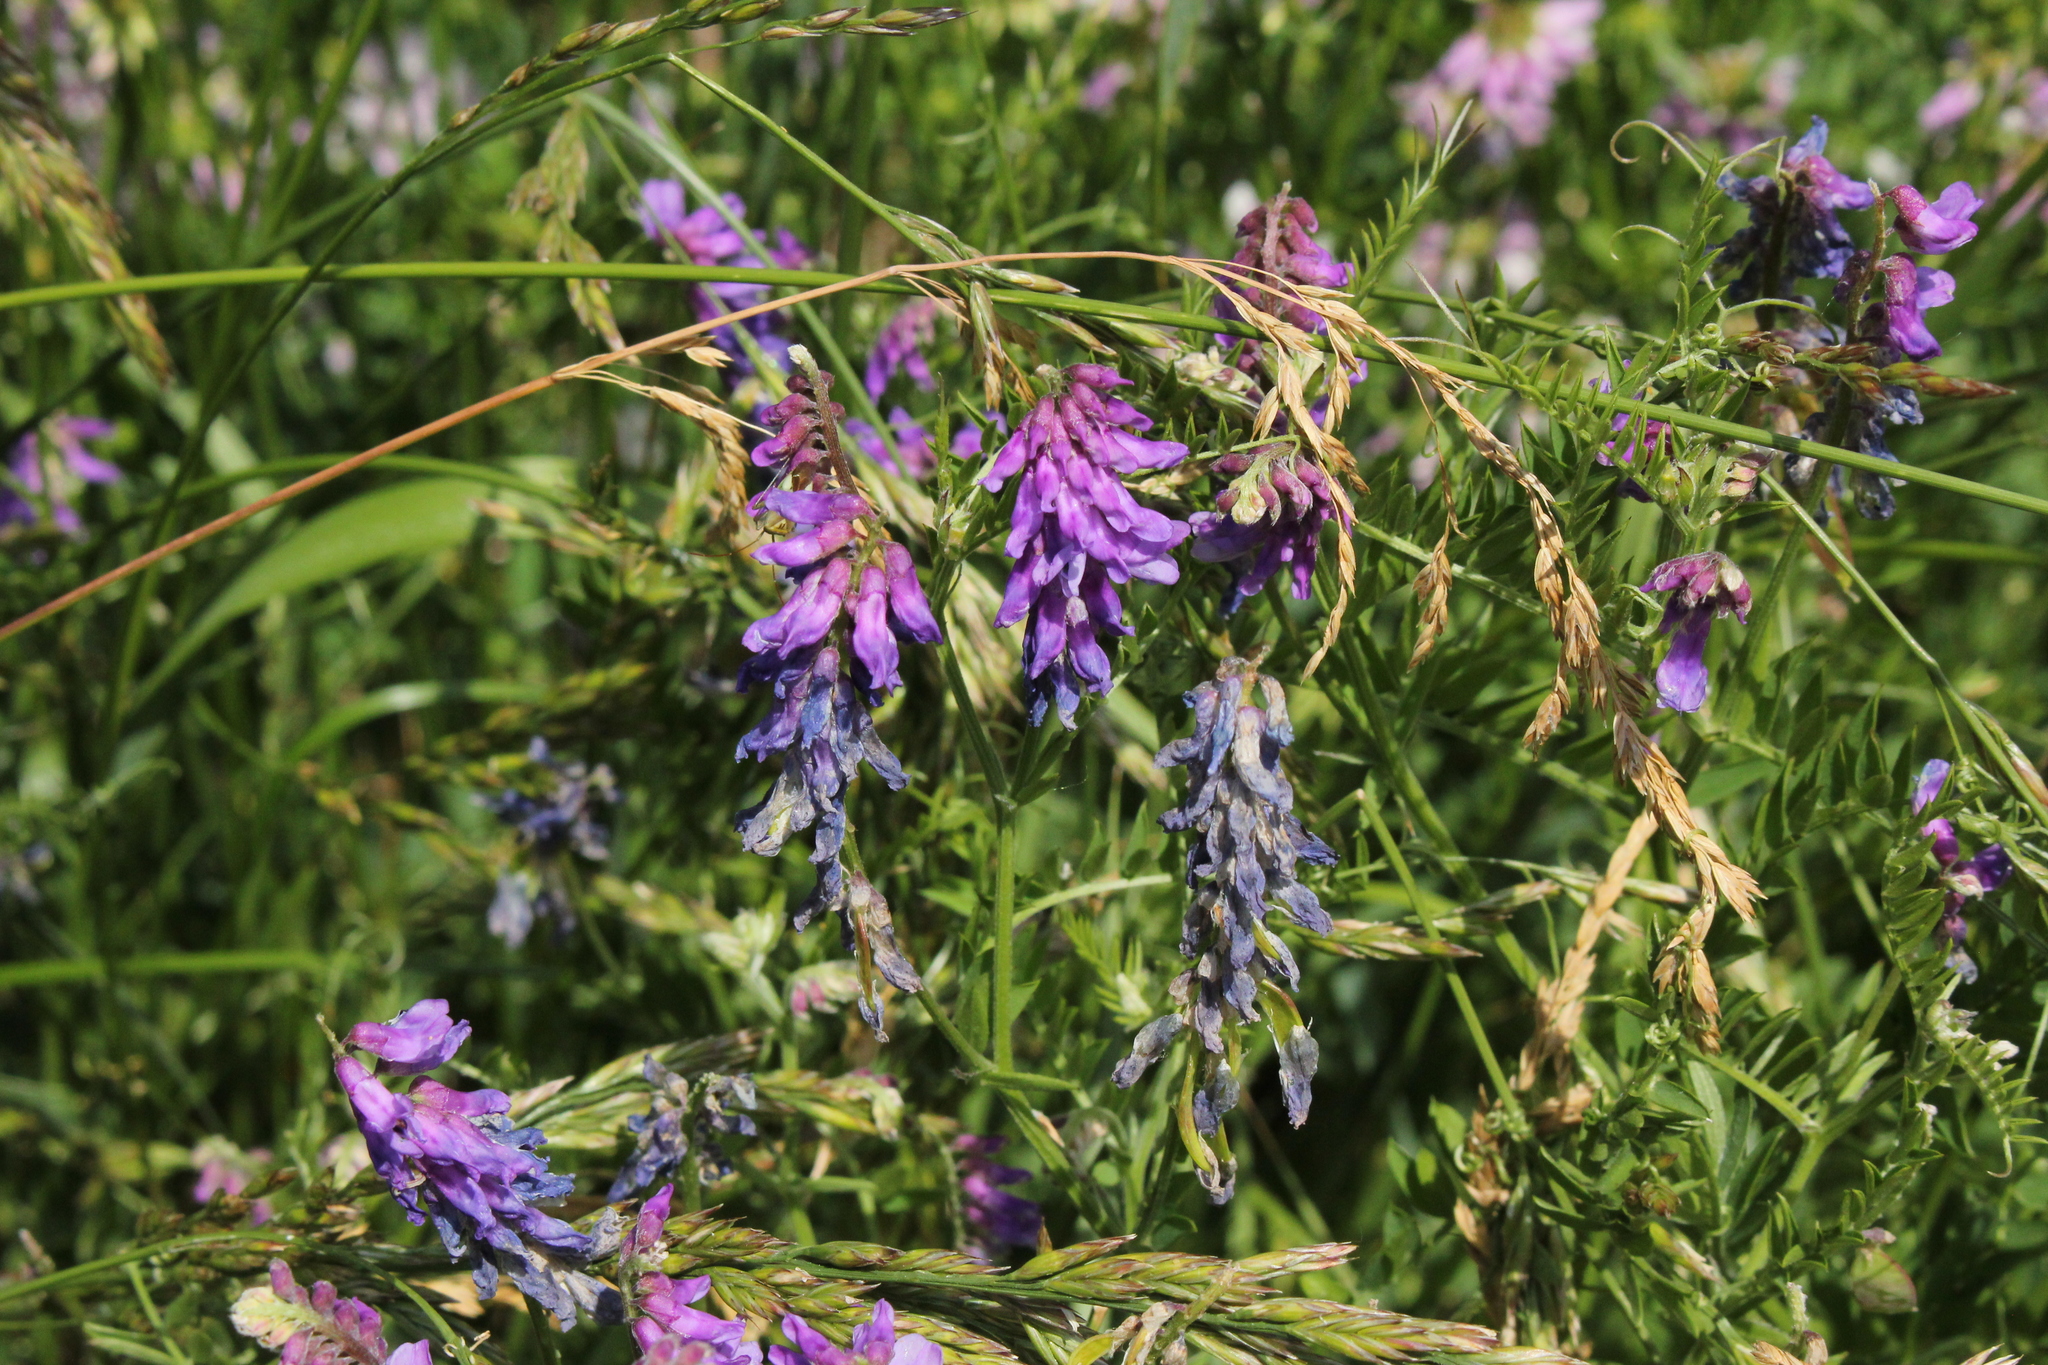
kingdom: Plantae
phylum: Tracheophyta
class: Magnoliopsida
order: Fabales
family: Fabaceae
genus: Vicia
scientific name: Vicia cracca
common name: Bird vetch
